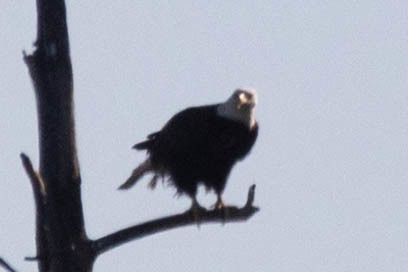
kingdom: Animalia
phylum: Chordata
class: Aves
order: Accipitriformes
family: Accipitridae
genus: Haliaeetus
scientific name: Haliaeetus leucocephalus
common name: Bald eagle
